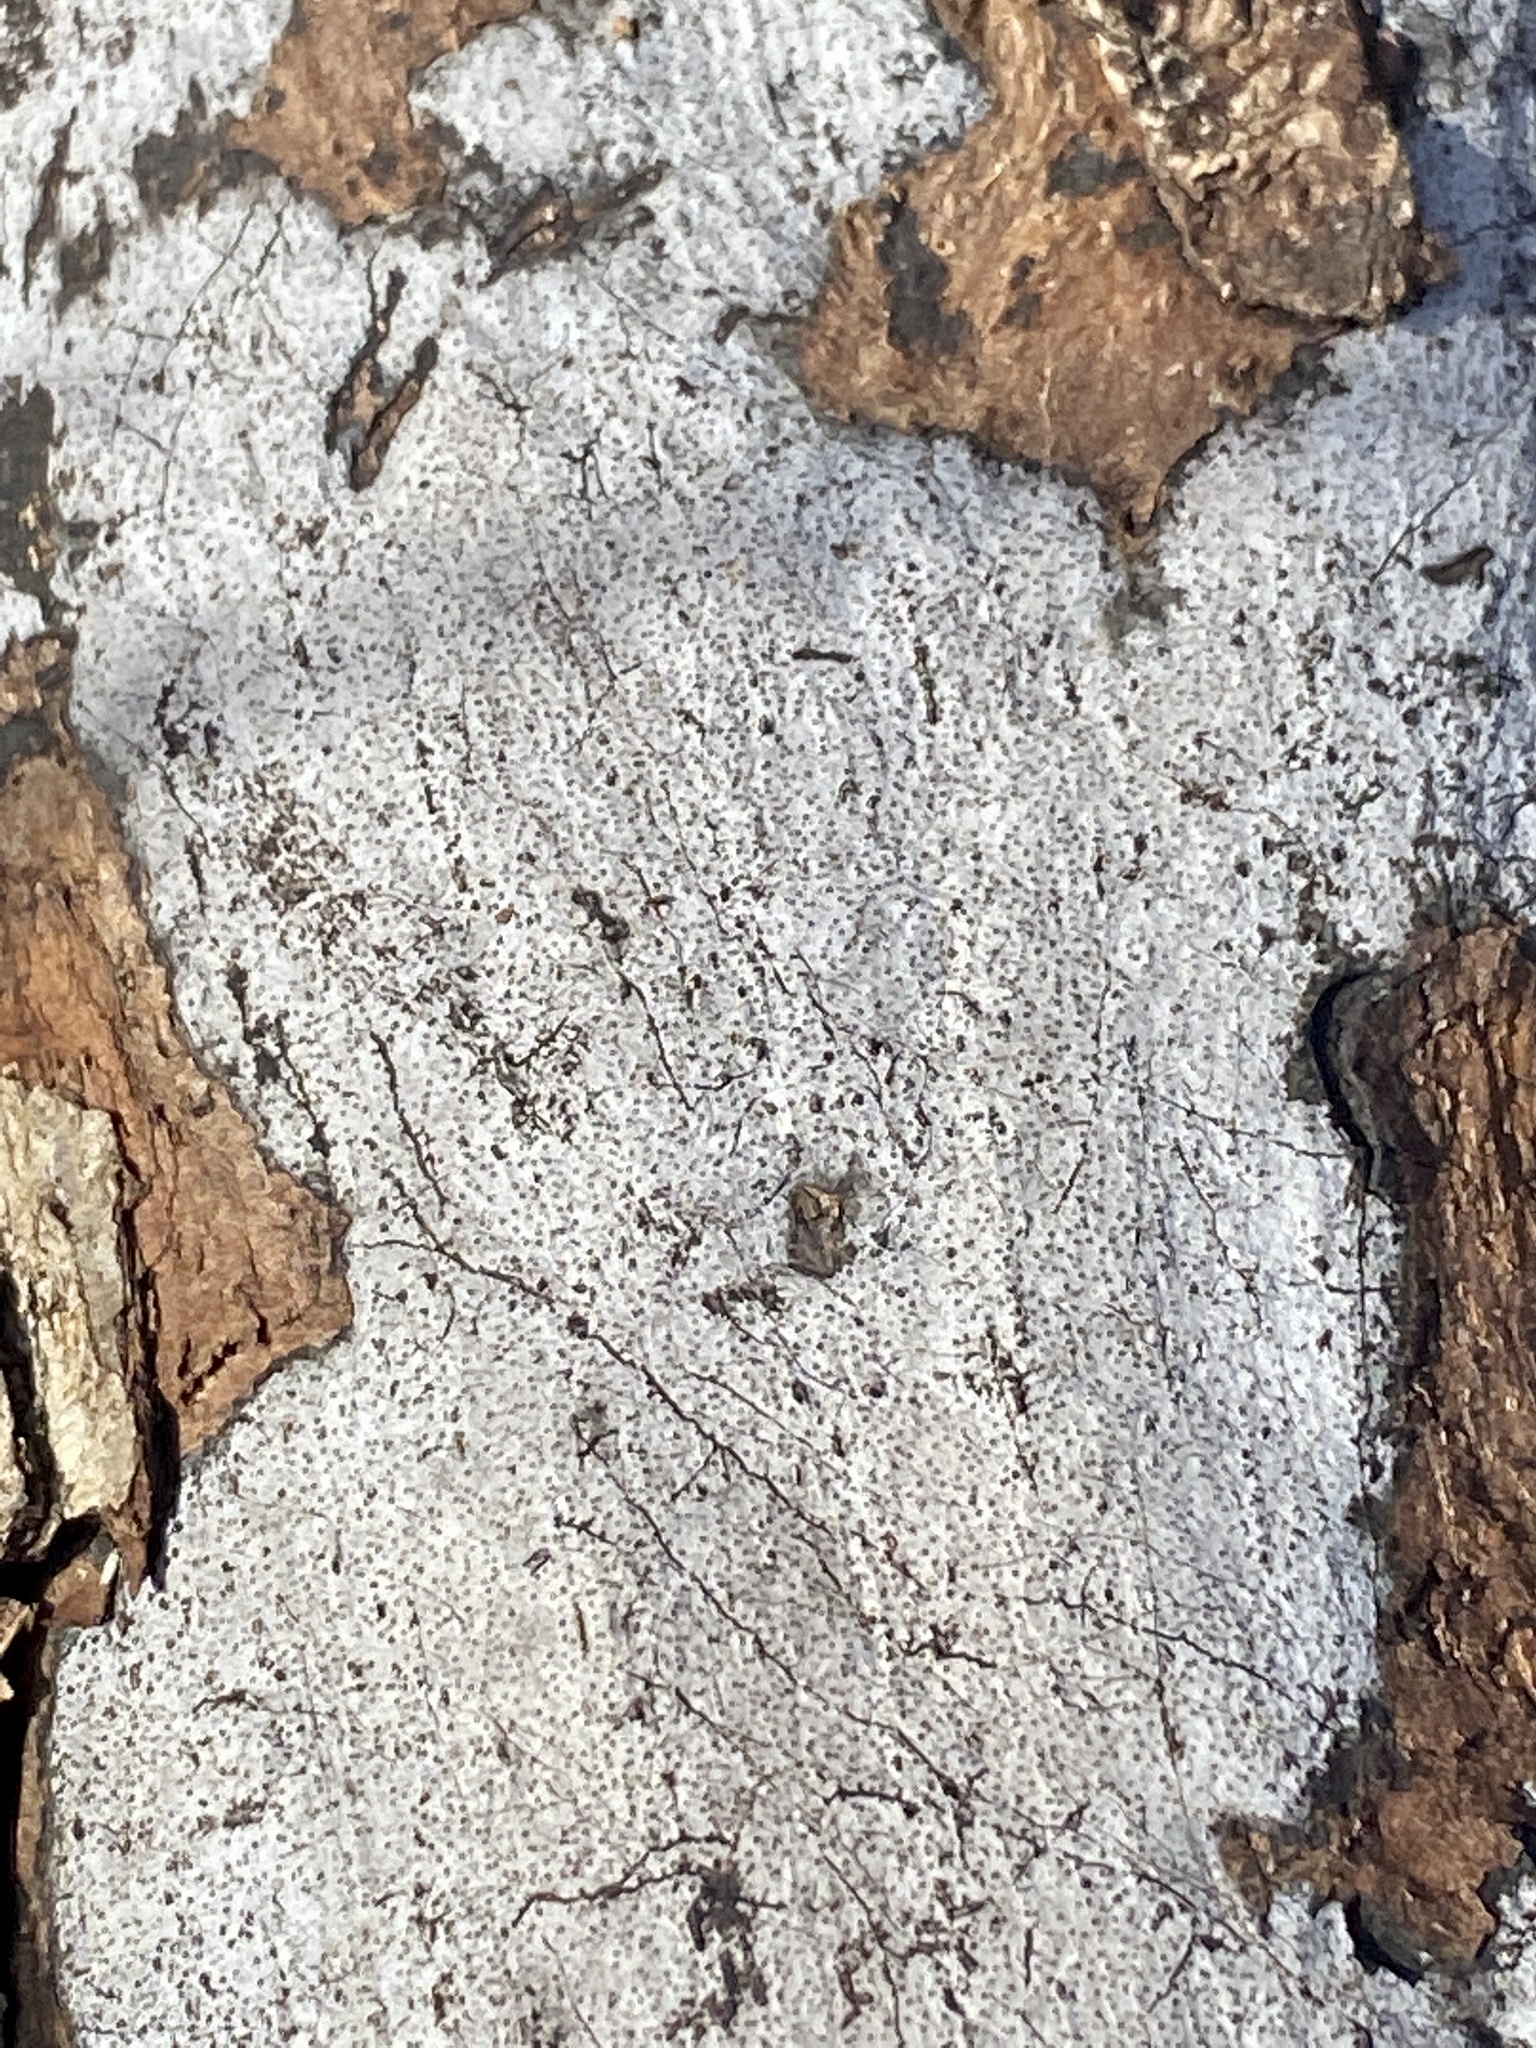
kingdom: Fungi
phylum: Ascomycota
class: Sordariomycetes
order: Xylariales
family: Graphostromataceae
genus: Biscogniauxia
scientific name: Biscogniauxia atropunctata
